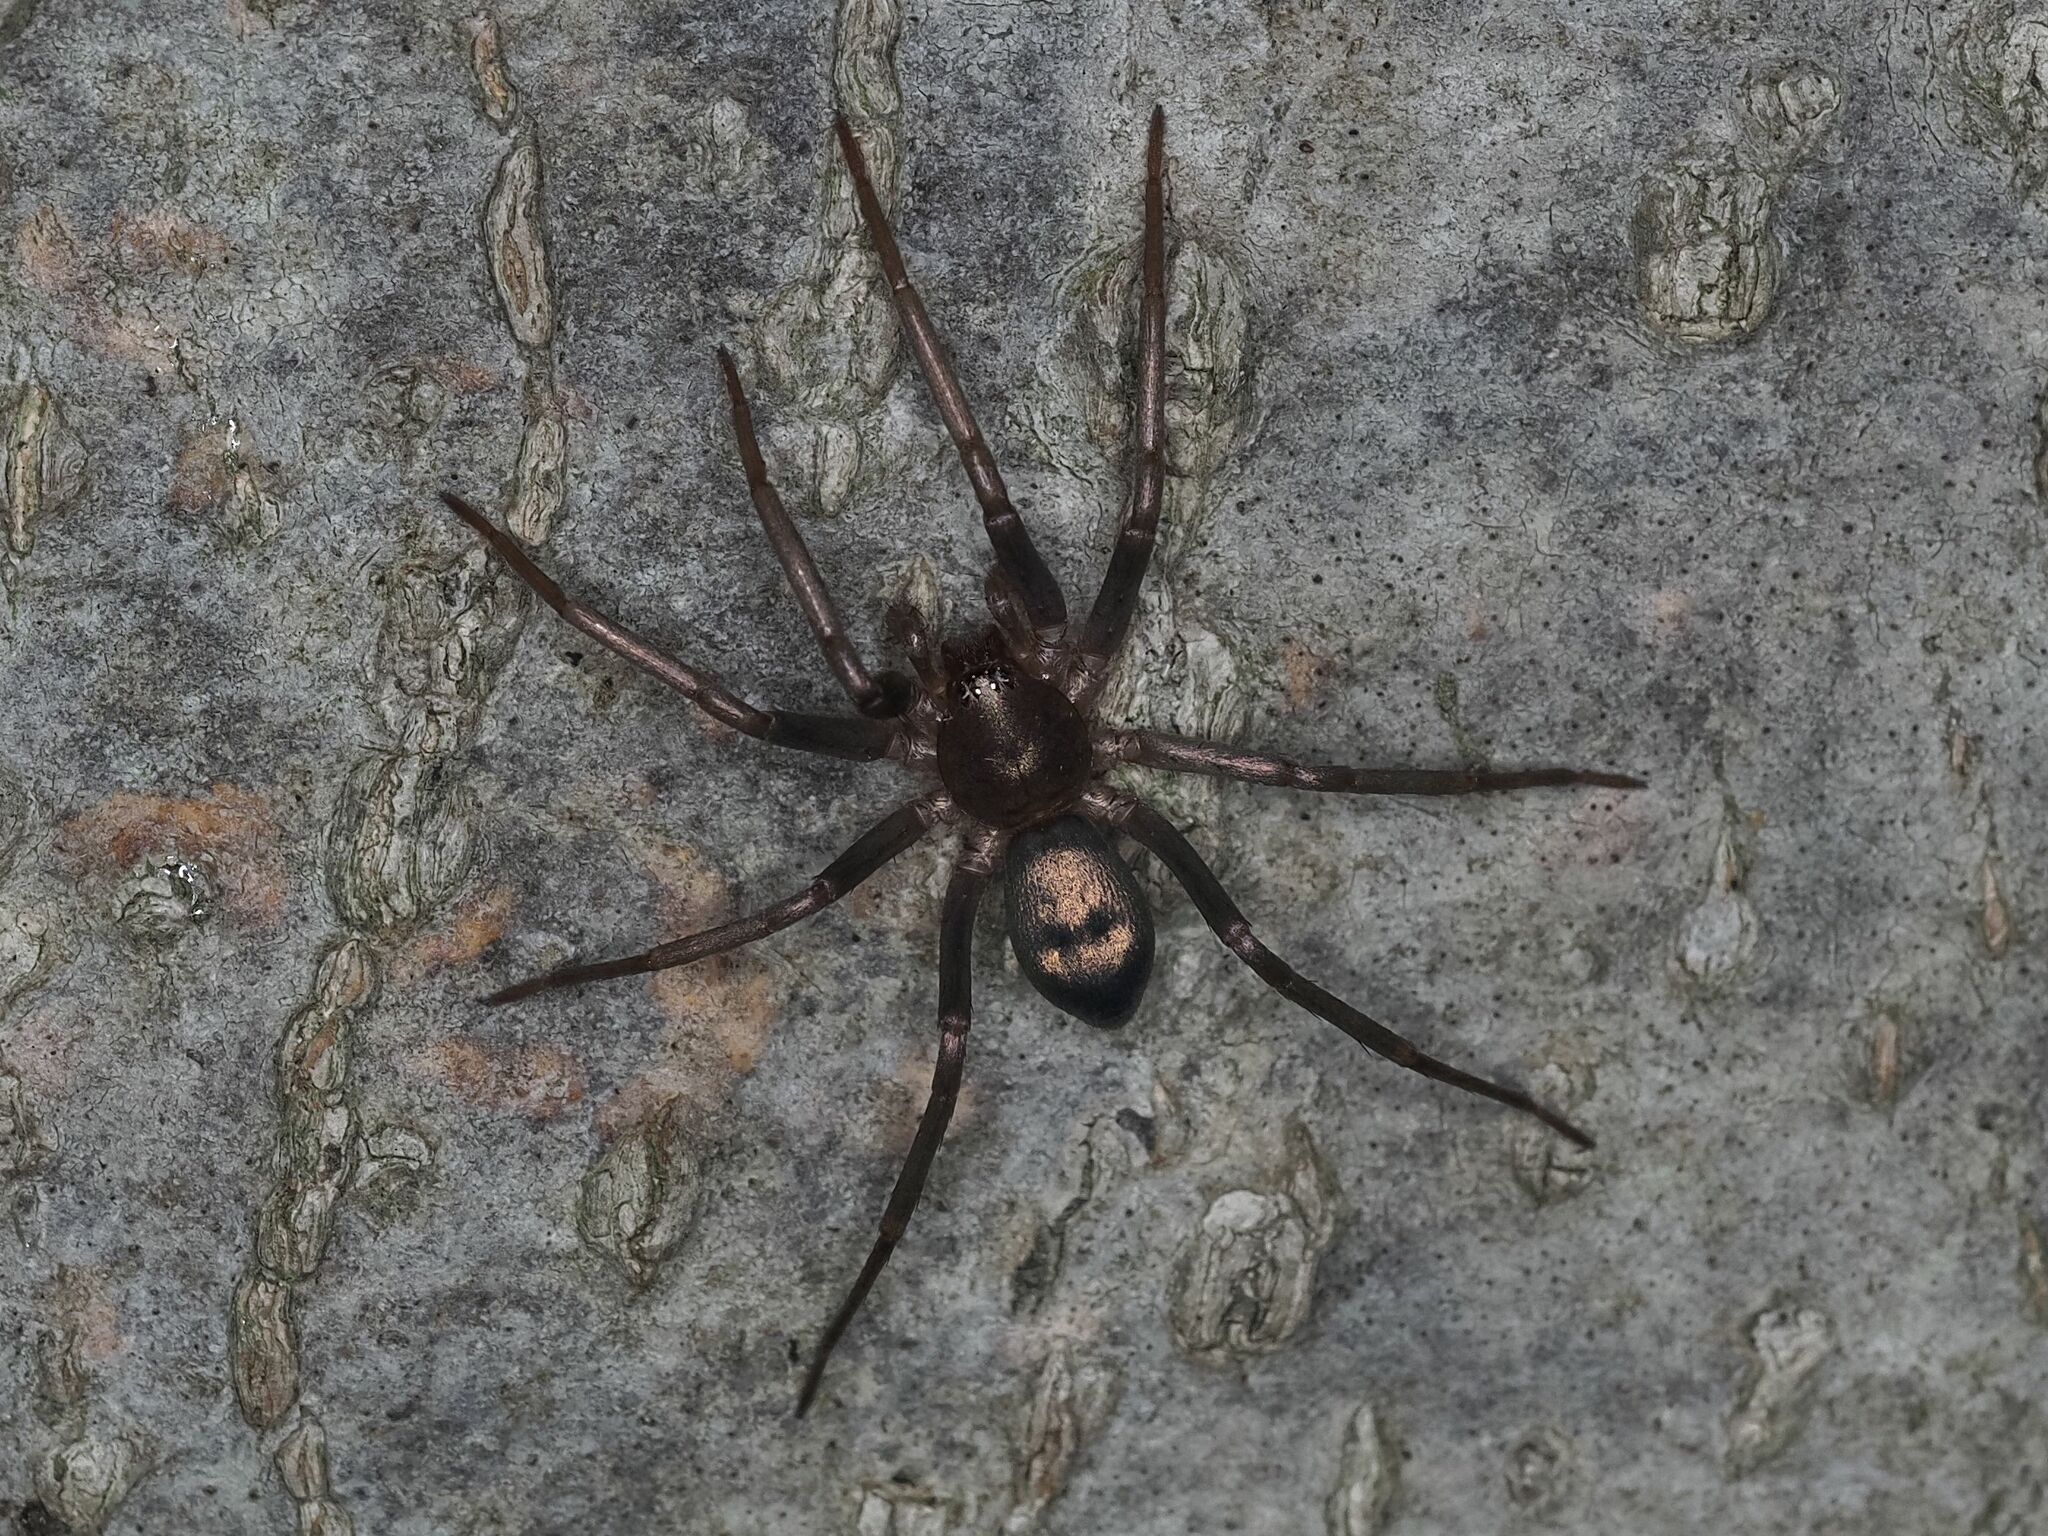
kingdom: Animalia
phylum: Arthropoda
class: Arachnida
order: Araneae
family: Liocranidae
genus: Sagana
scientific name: Sagana rutilans
